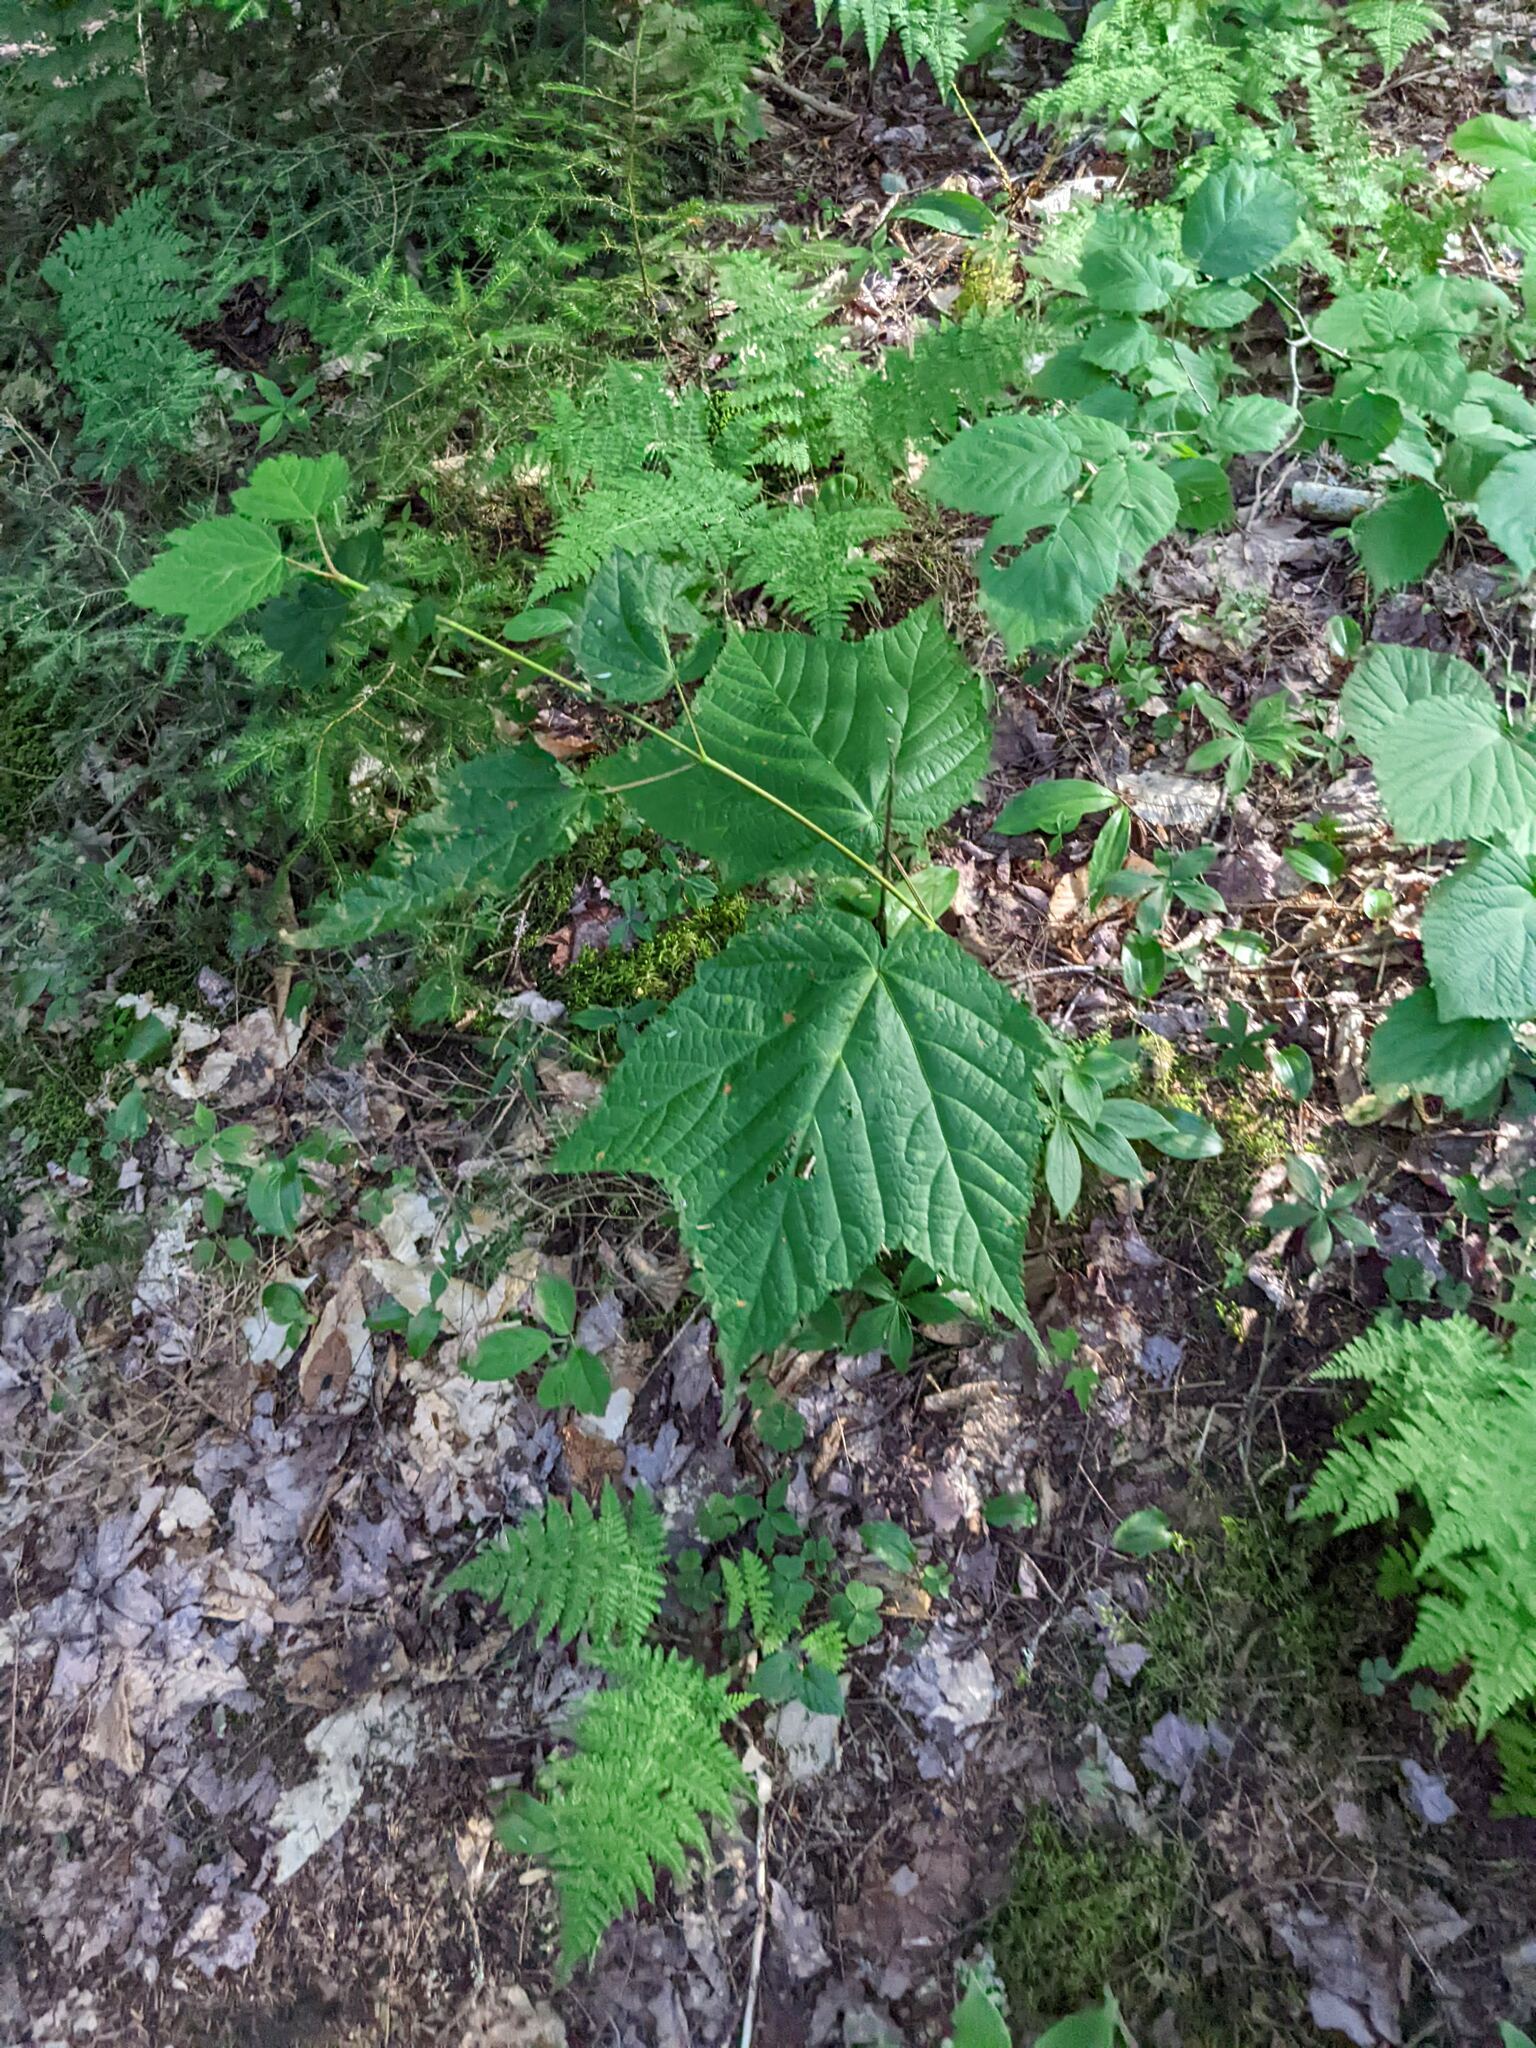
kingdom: Plantae
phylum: Tracheophyta
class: Magnoliopsida
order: Sapindales
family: Sapindaceae
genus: Acer
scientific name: Acer pensylvanicum
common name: Moosewood
